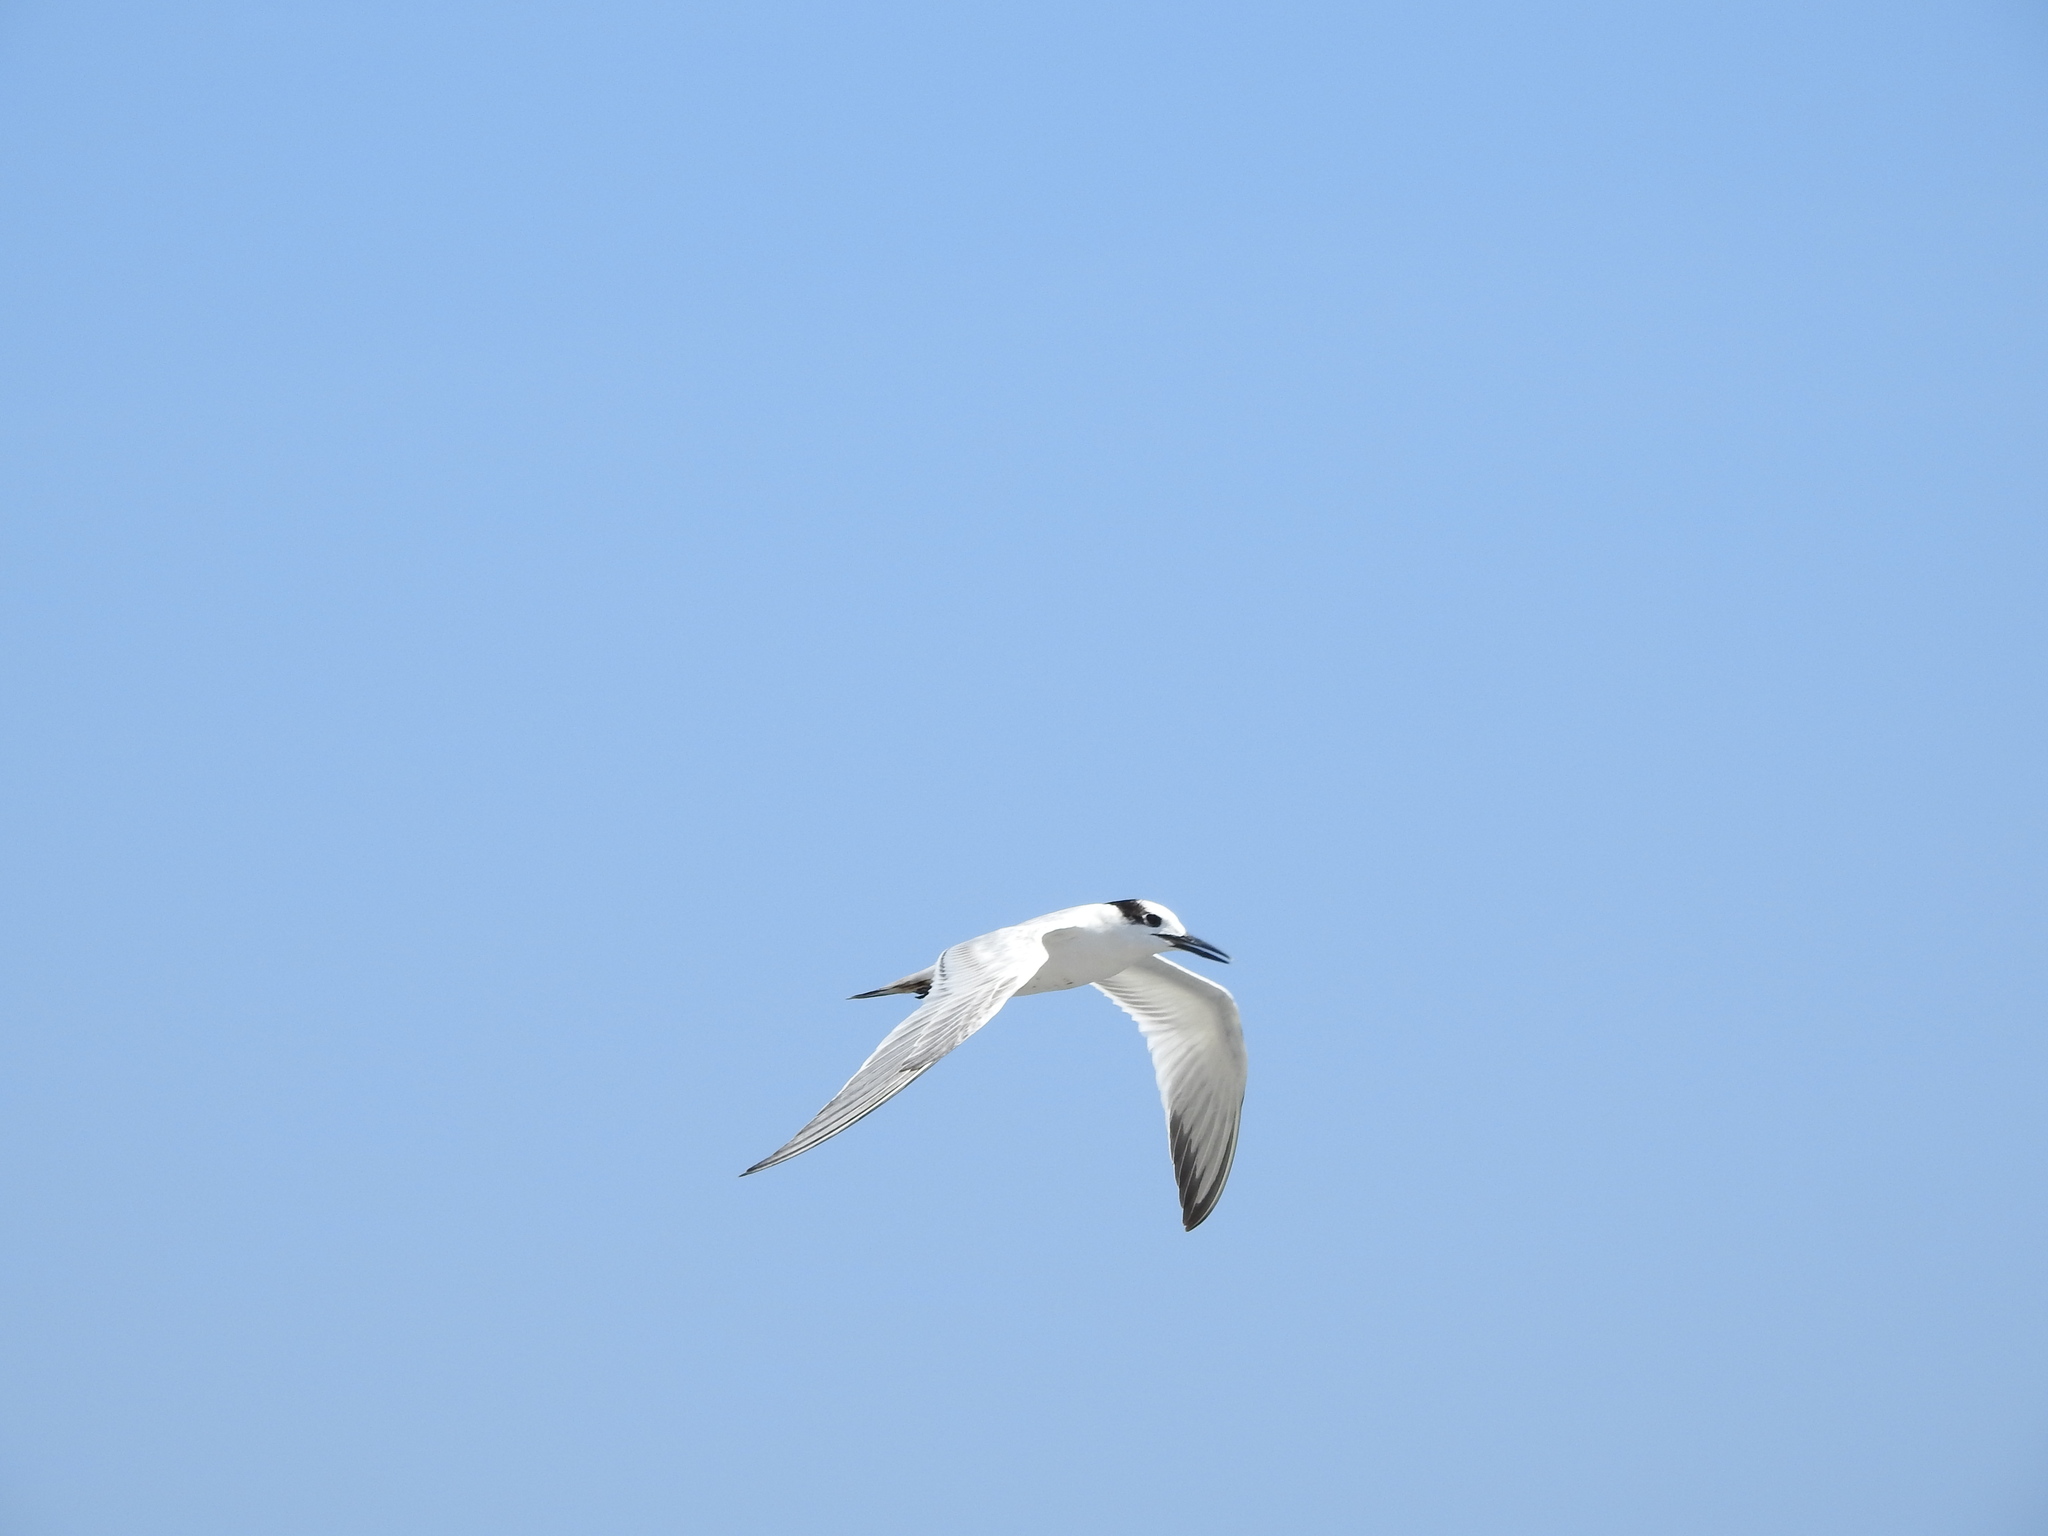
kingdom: Animalia
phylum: Chordata
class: Aves
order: Charadriiformes
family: Laridae
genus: Thalasseus
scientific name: Thalasseus sandvicensis
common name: Sandwich tern
